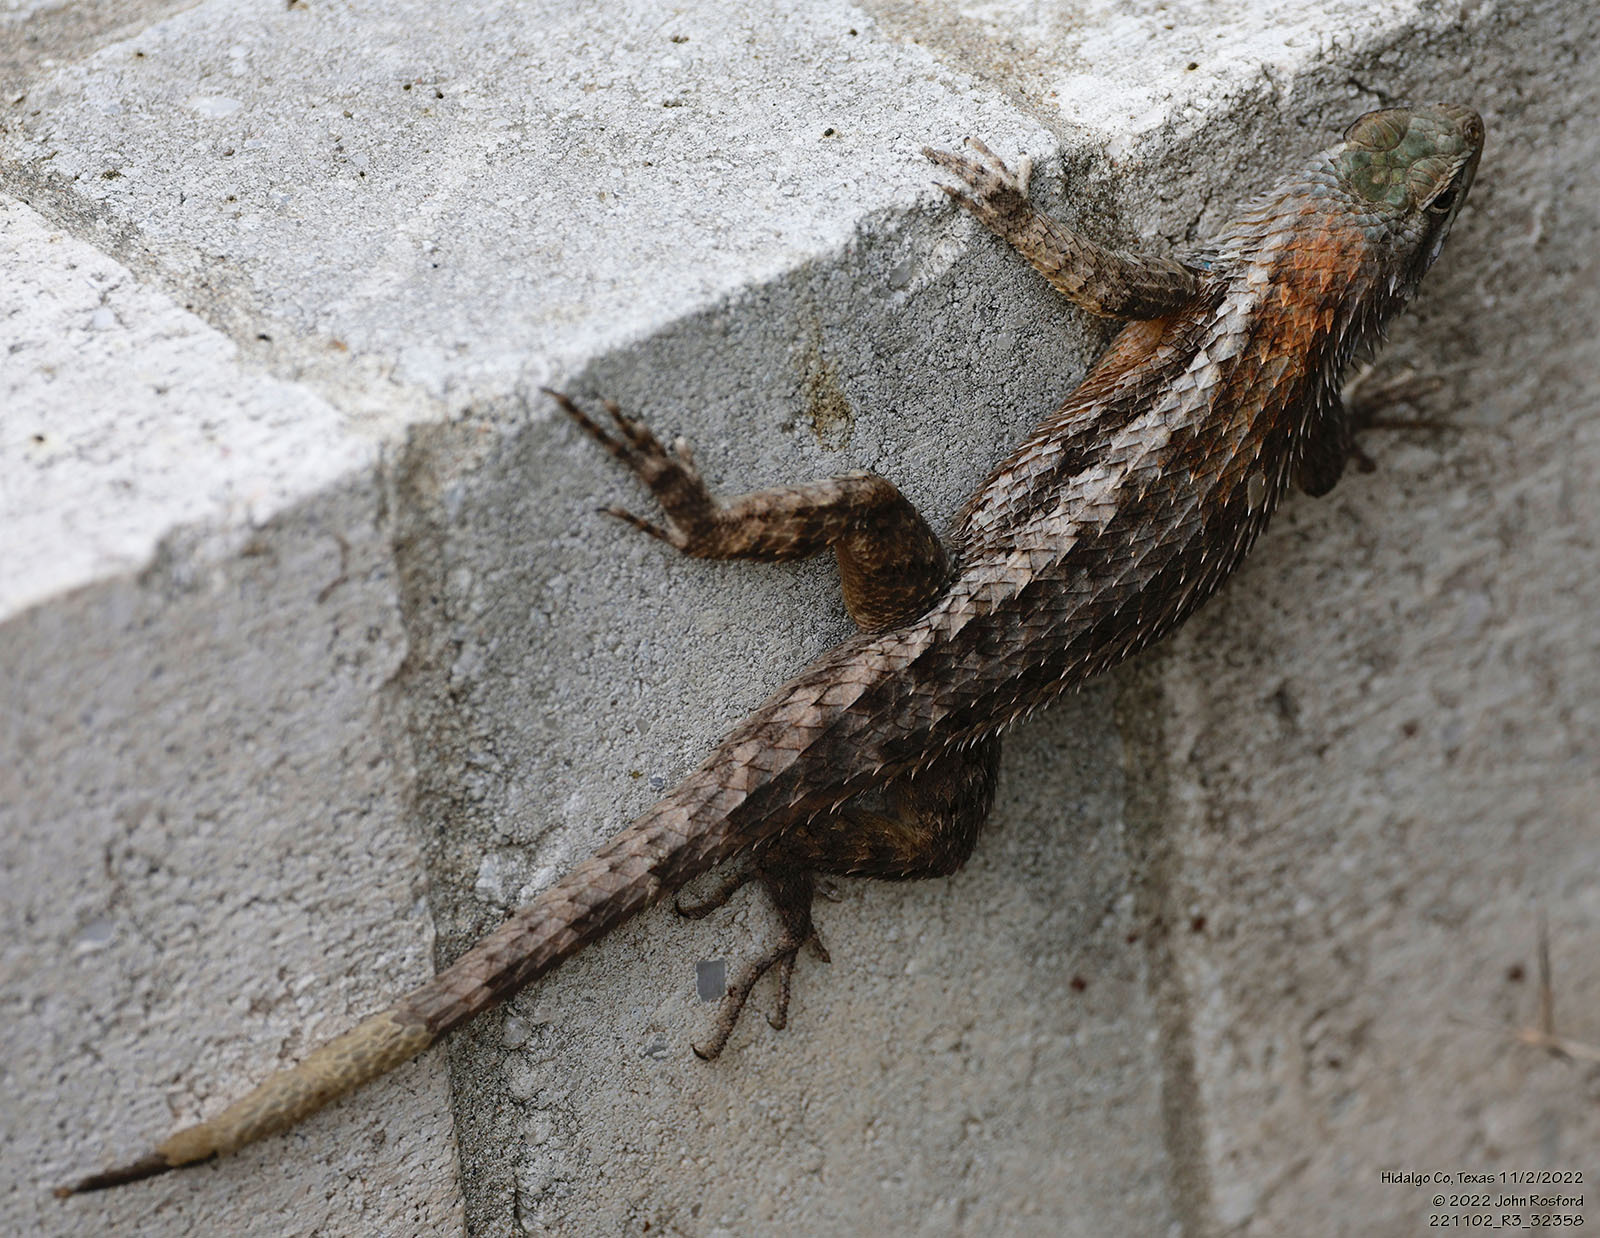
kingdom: Animalia
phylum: Chordata
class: Squamata
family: Phrynosomatidae
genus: Sceloporus
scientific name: Sceloporus olivaceus
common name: Texas spiny lizard
